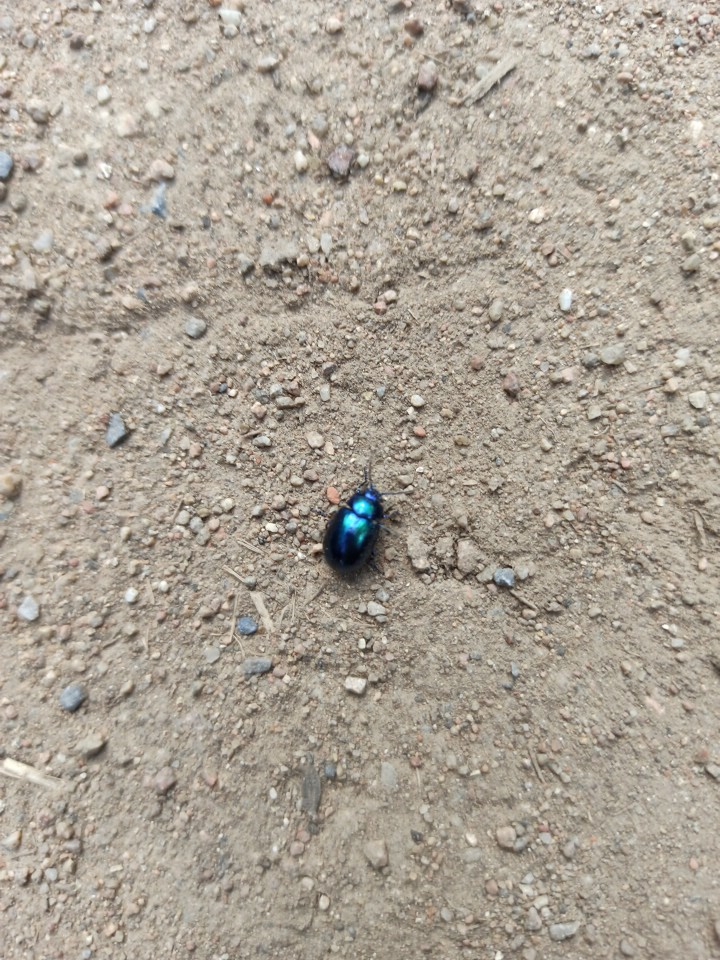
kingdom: Animalia
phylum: Arthropoda
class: Insecta
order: Coleoptera
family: Chrysomelidae
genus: Chrysolina
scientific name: Chrysolina sturmi
